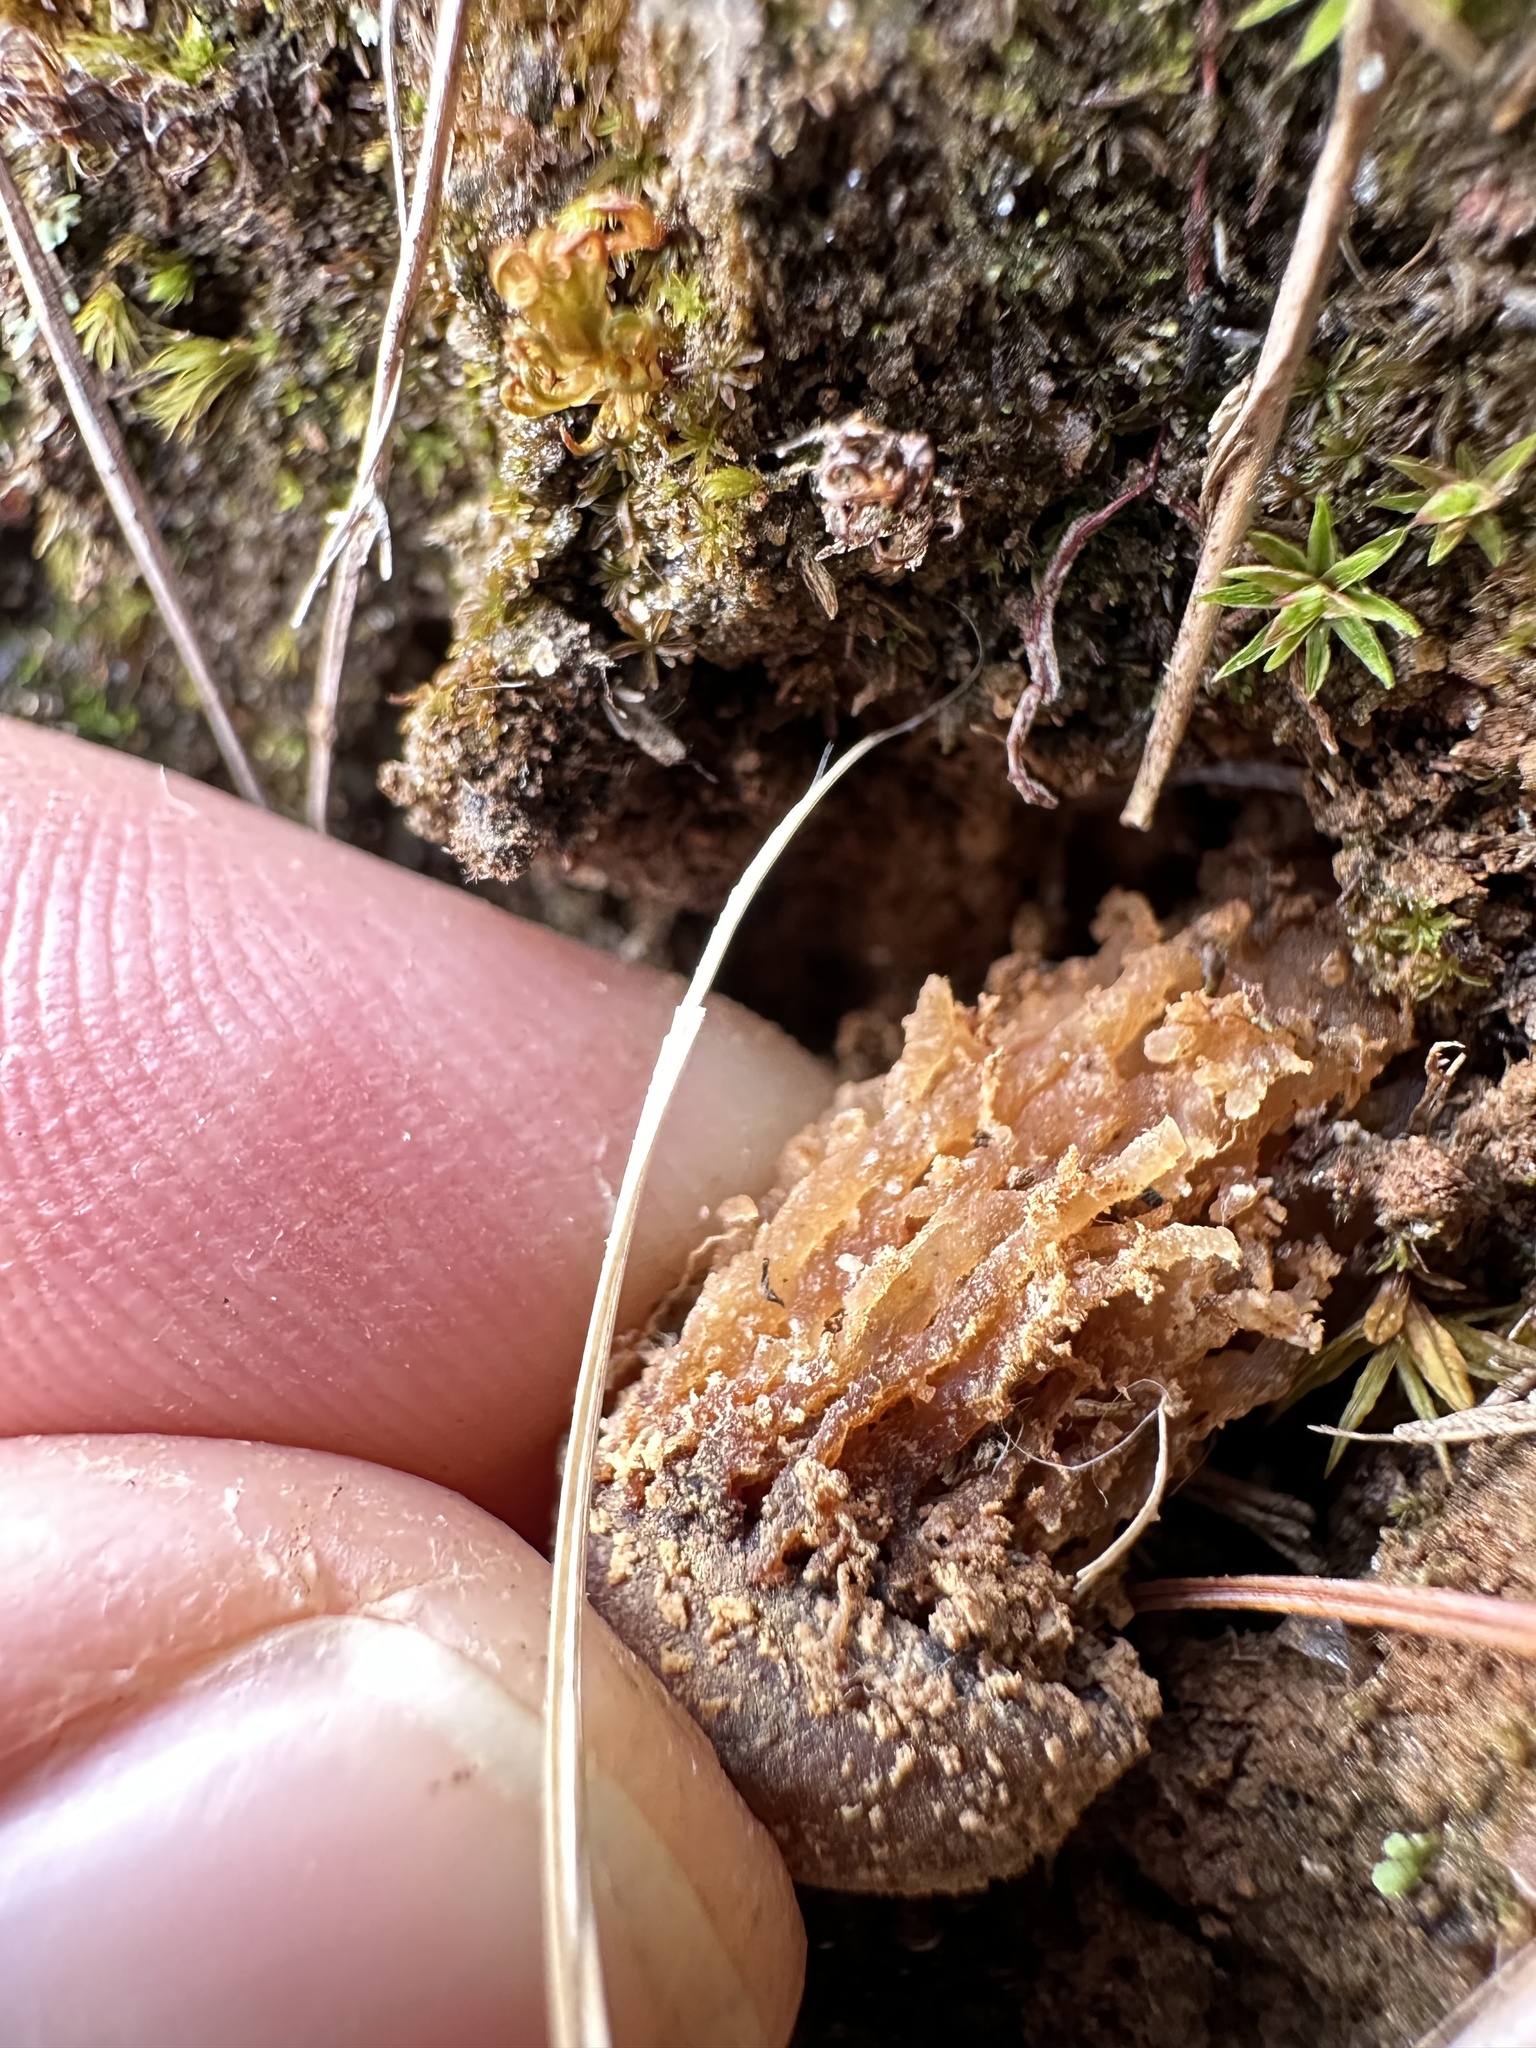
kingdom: Fungi
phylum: Basidiomycota
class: Agaricomycetes
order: Boletales
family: Calostomataceae
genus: Calostoma
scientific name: Calostoma ravenelii
